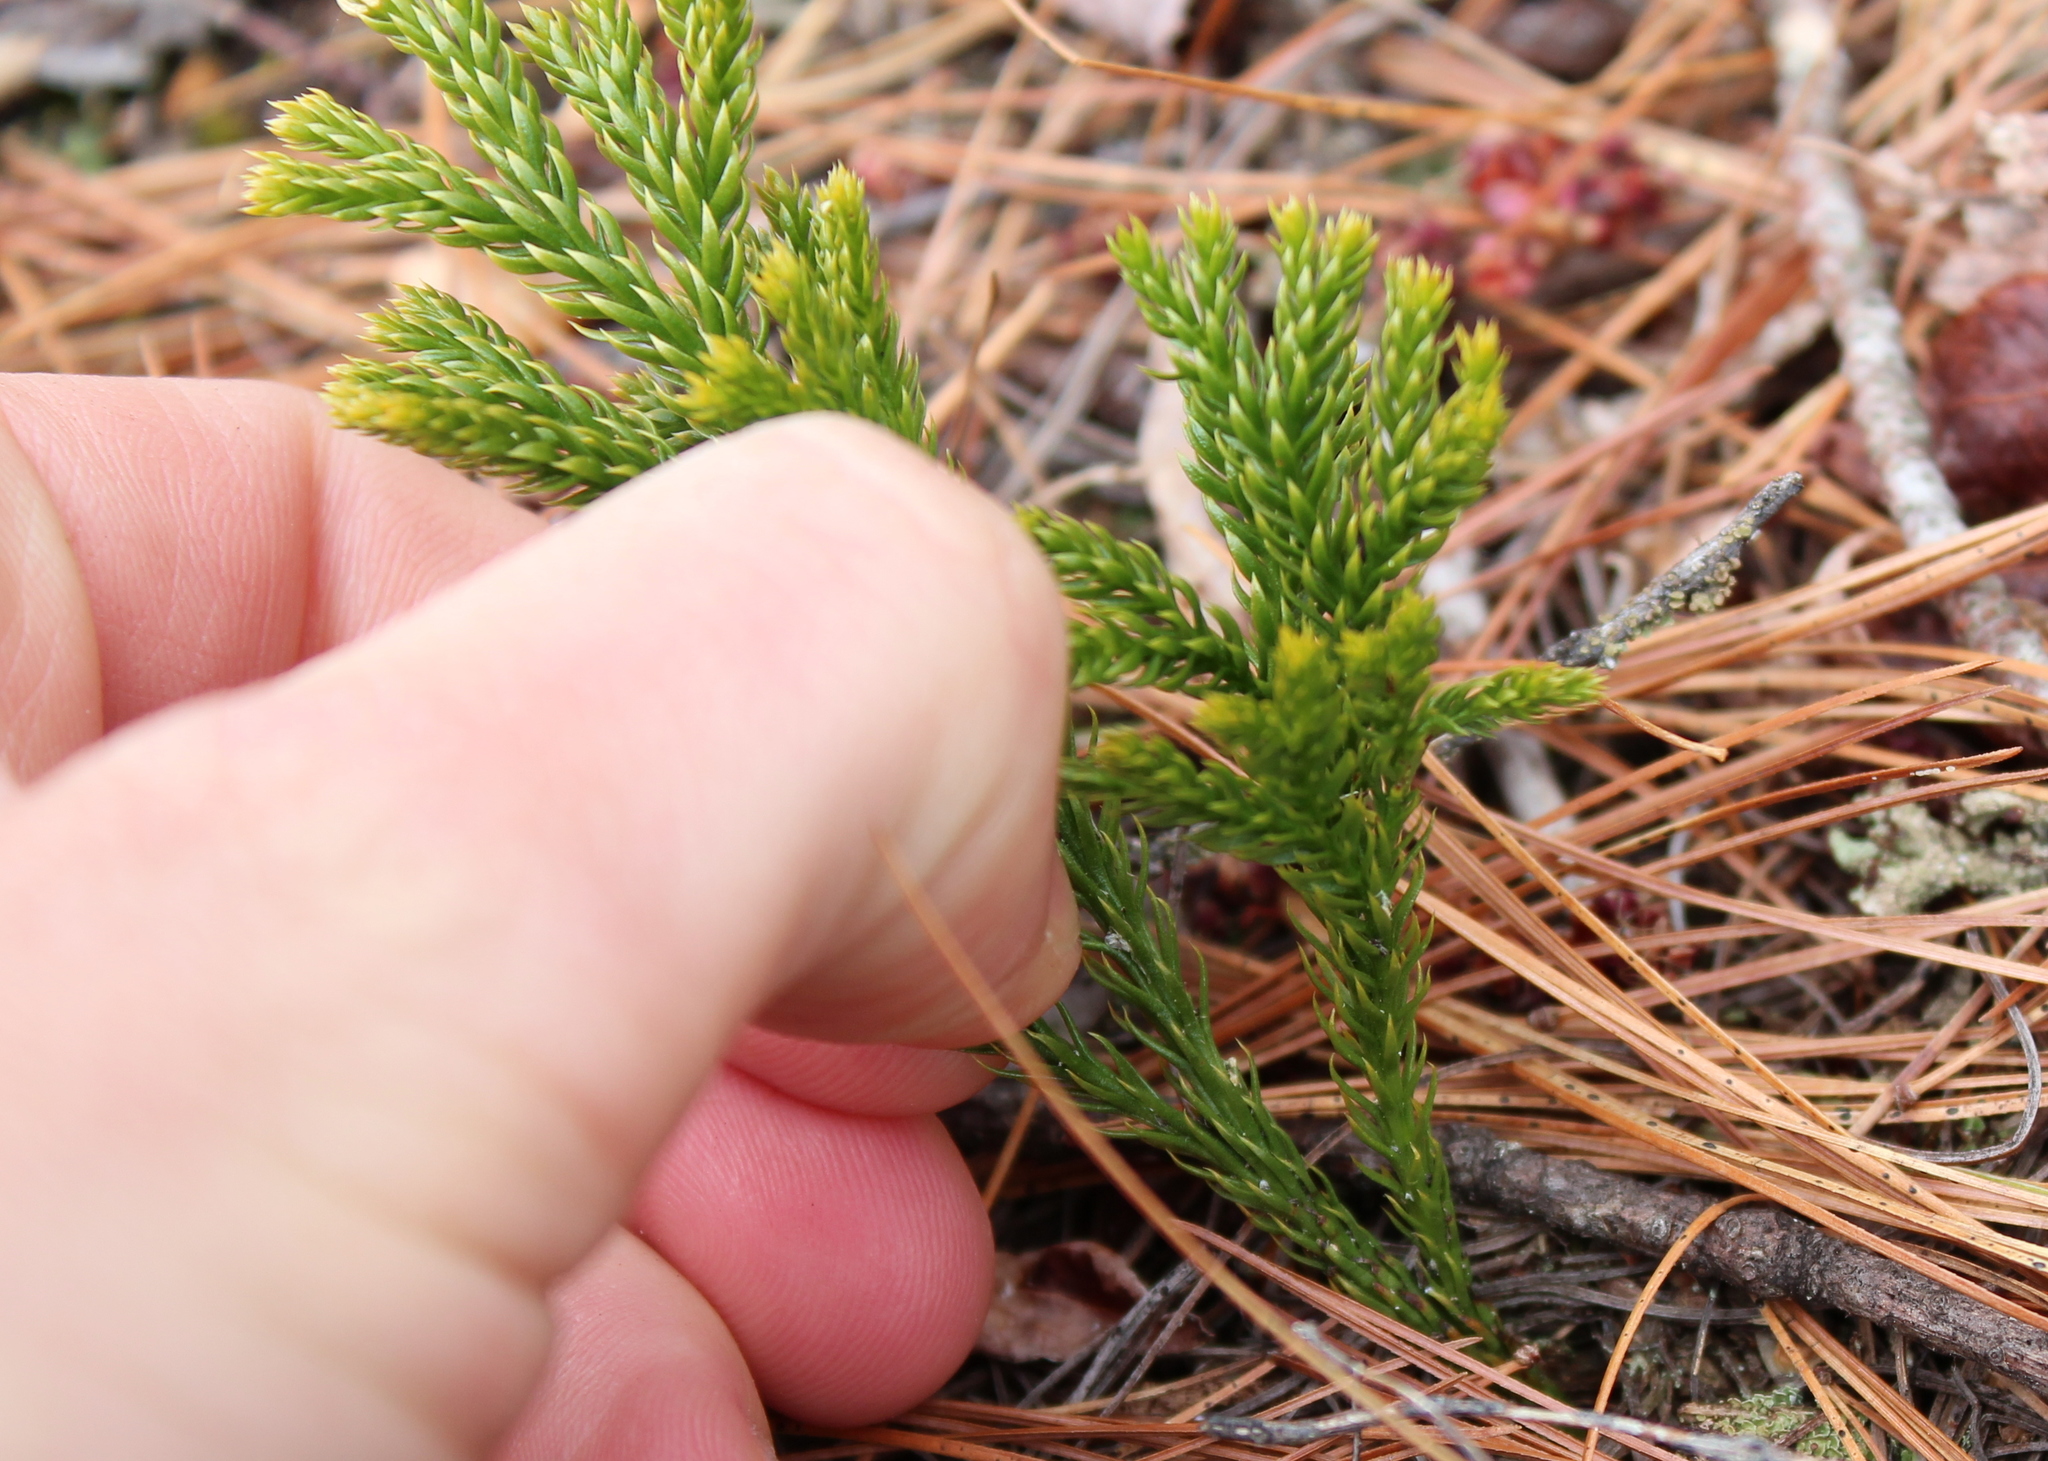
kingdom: Plantae
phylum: Tracheophyta
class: Lycopodiopsida
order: Lycopodiales
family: Lycopodiaceae
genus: Dendrolycopodium
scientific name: Dendrolycopodium hickeyi
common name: Hickey's clubmoss
